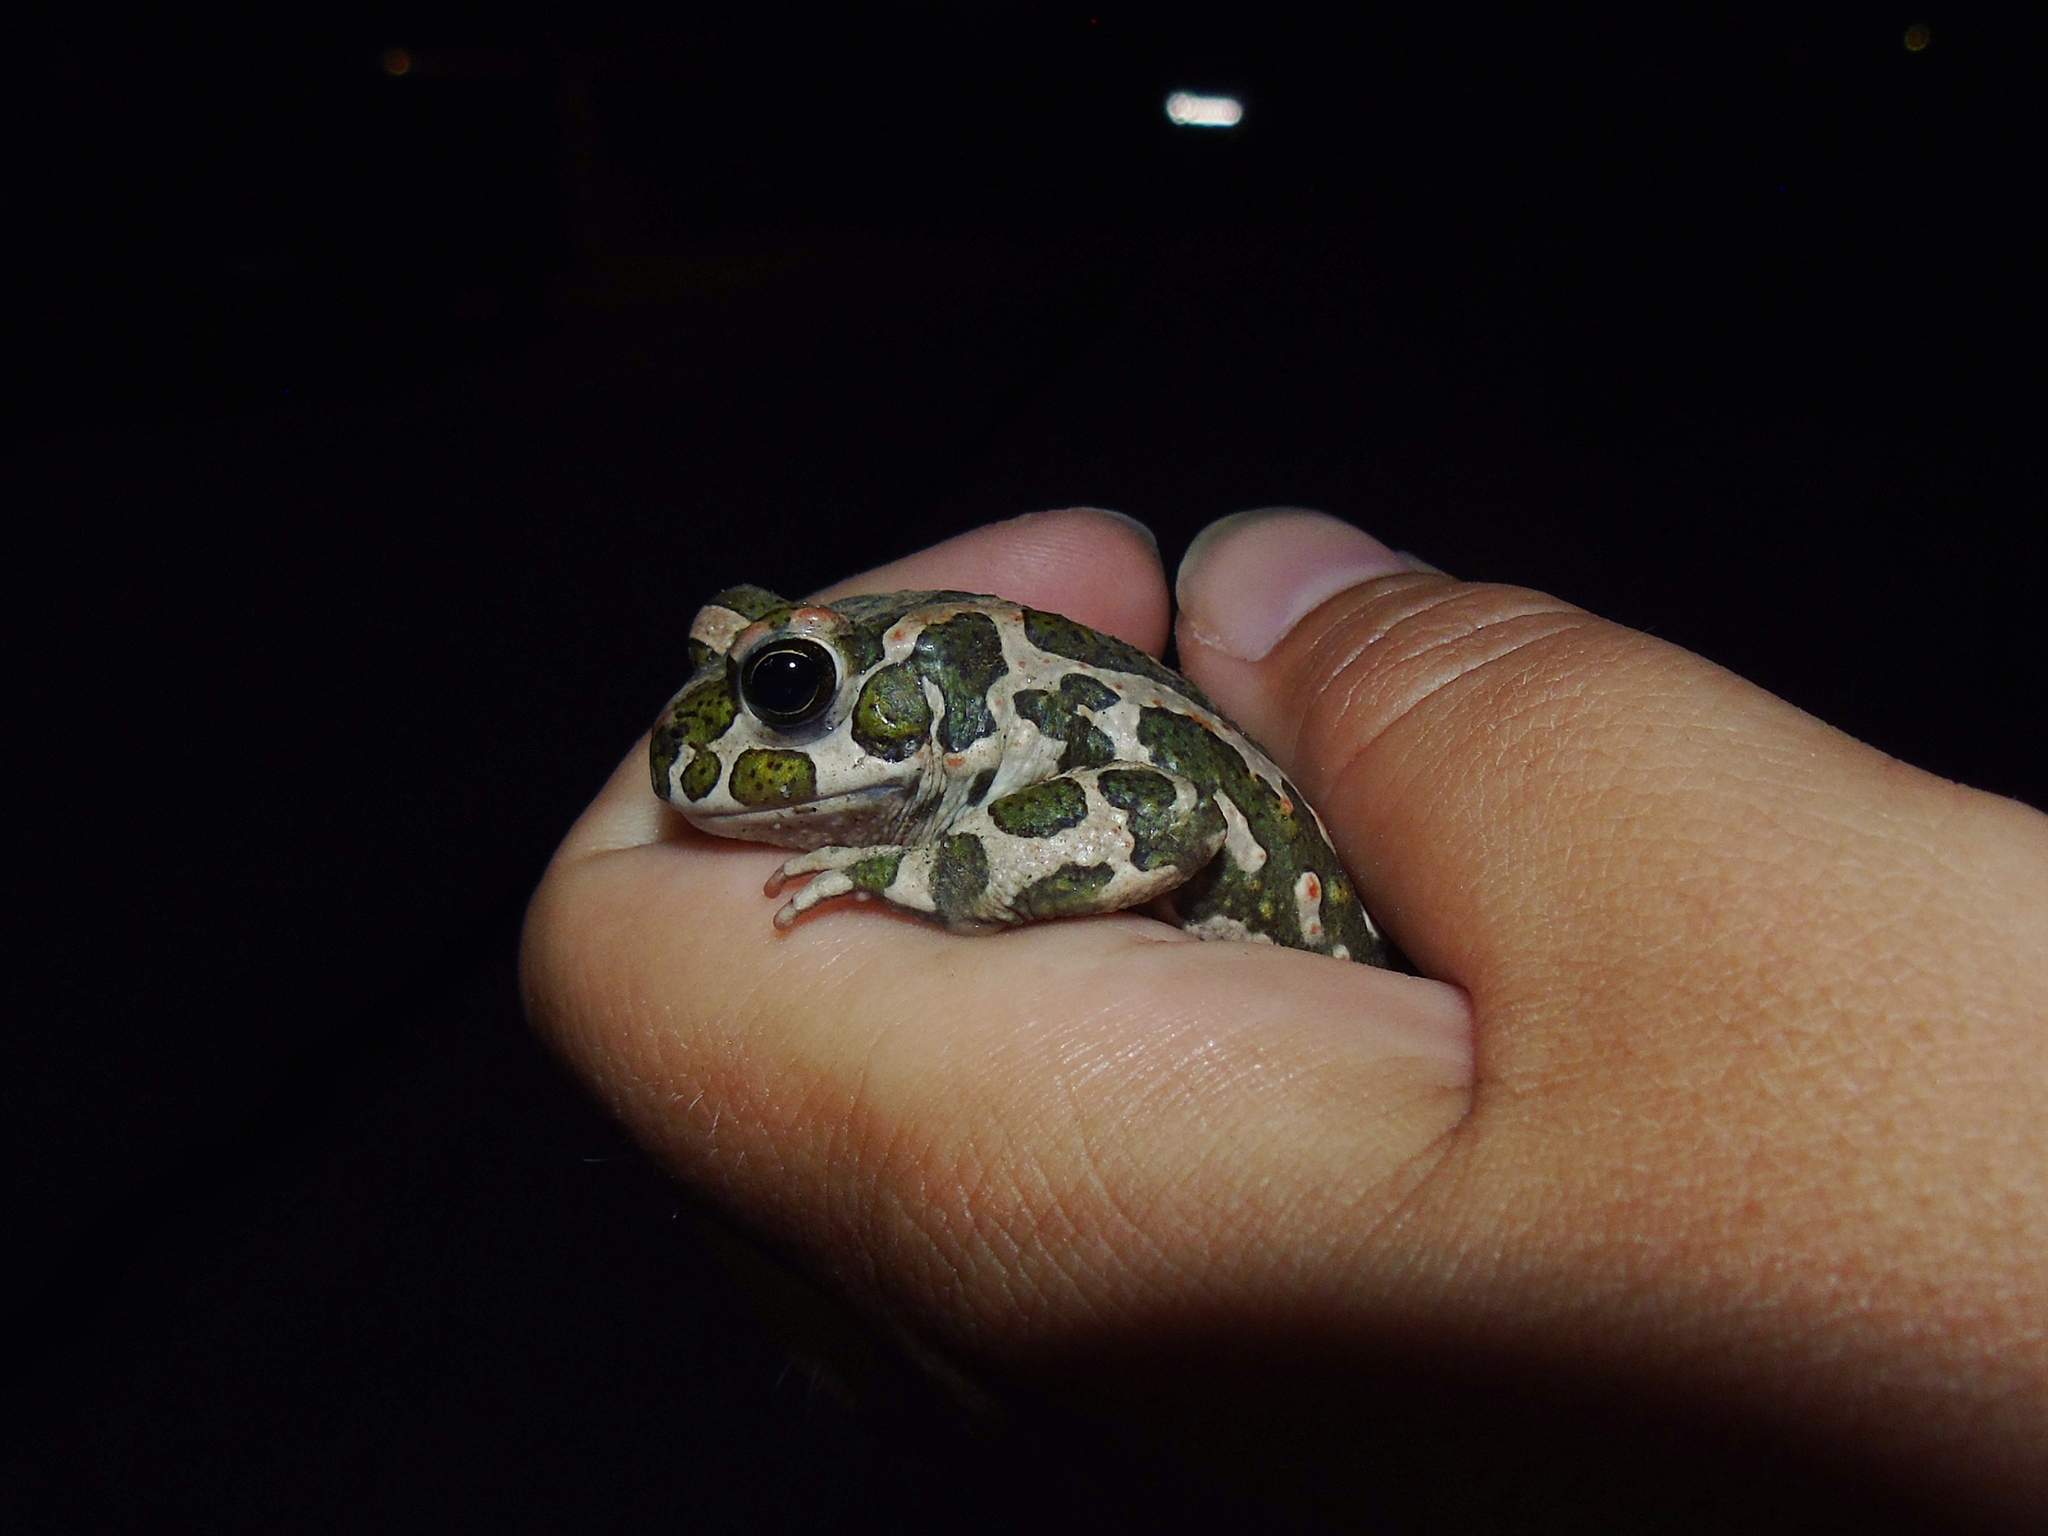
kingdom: Animalia
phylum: Chordata
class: Amphibia
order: Anura
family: Bufonidae
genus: Bufotes
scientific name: Bufotes viridis
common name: European green toad
